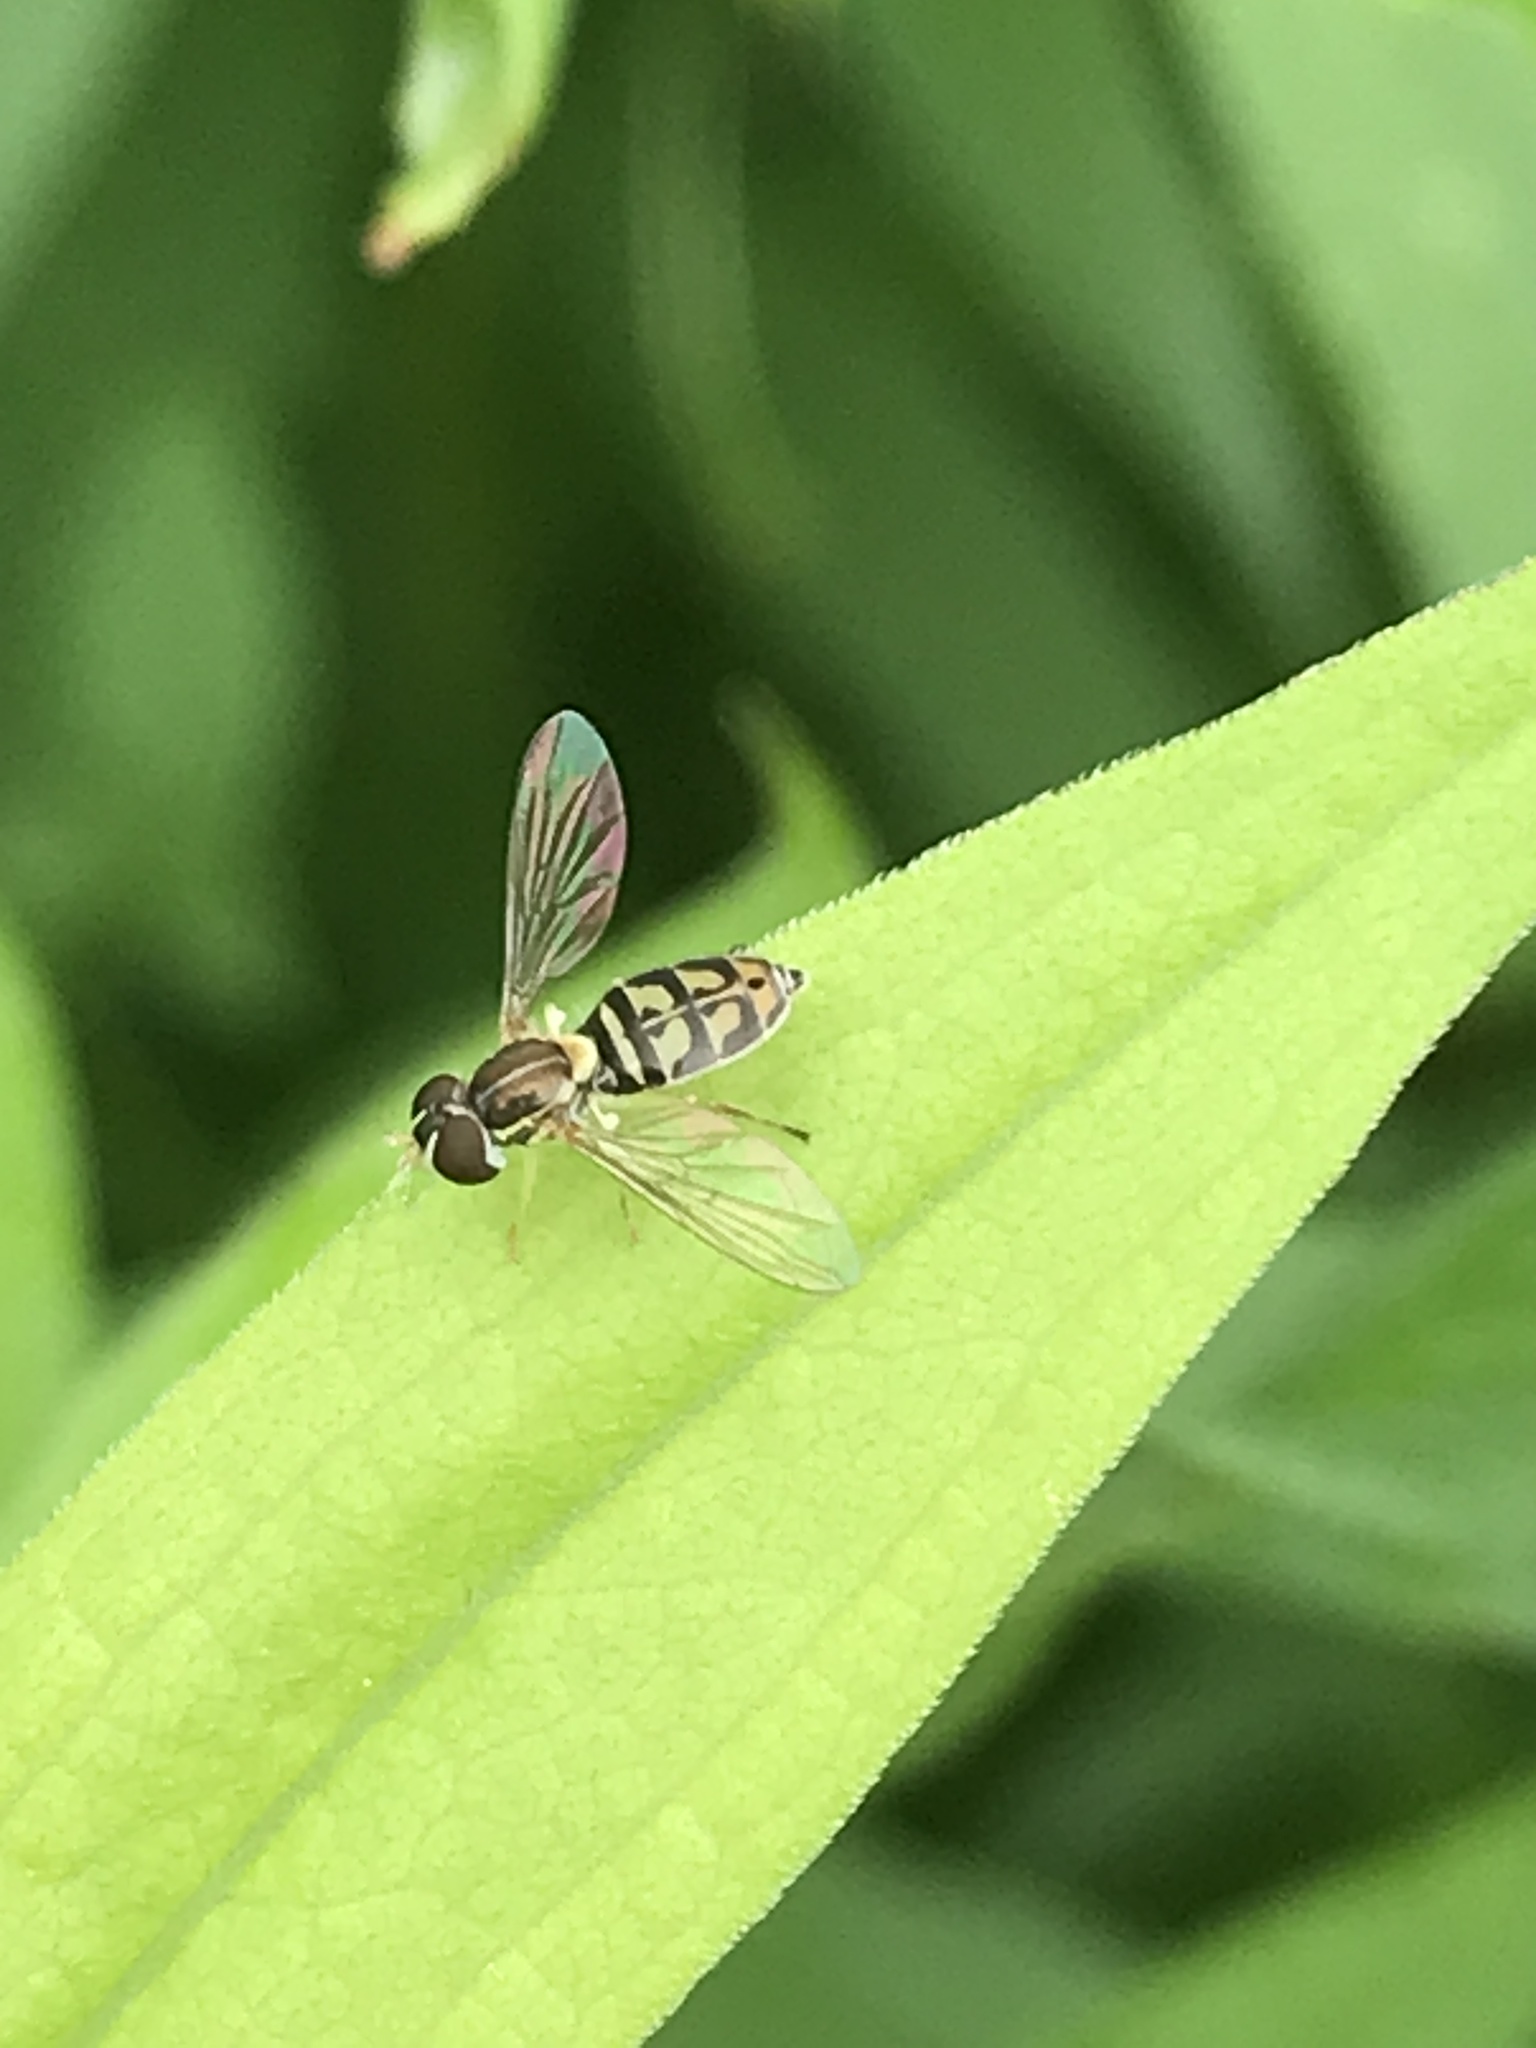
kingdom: Animalia
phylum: Arthropoda
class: Insecta
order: Diptera
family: Syrphidae
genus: Toxomerus
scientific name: Toxomerus marginatus
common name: Syrphid fly
